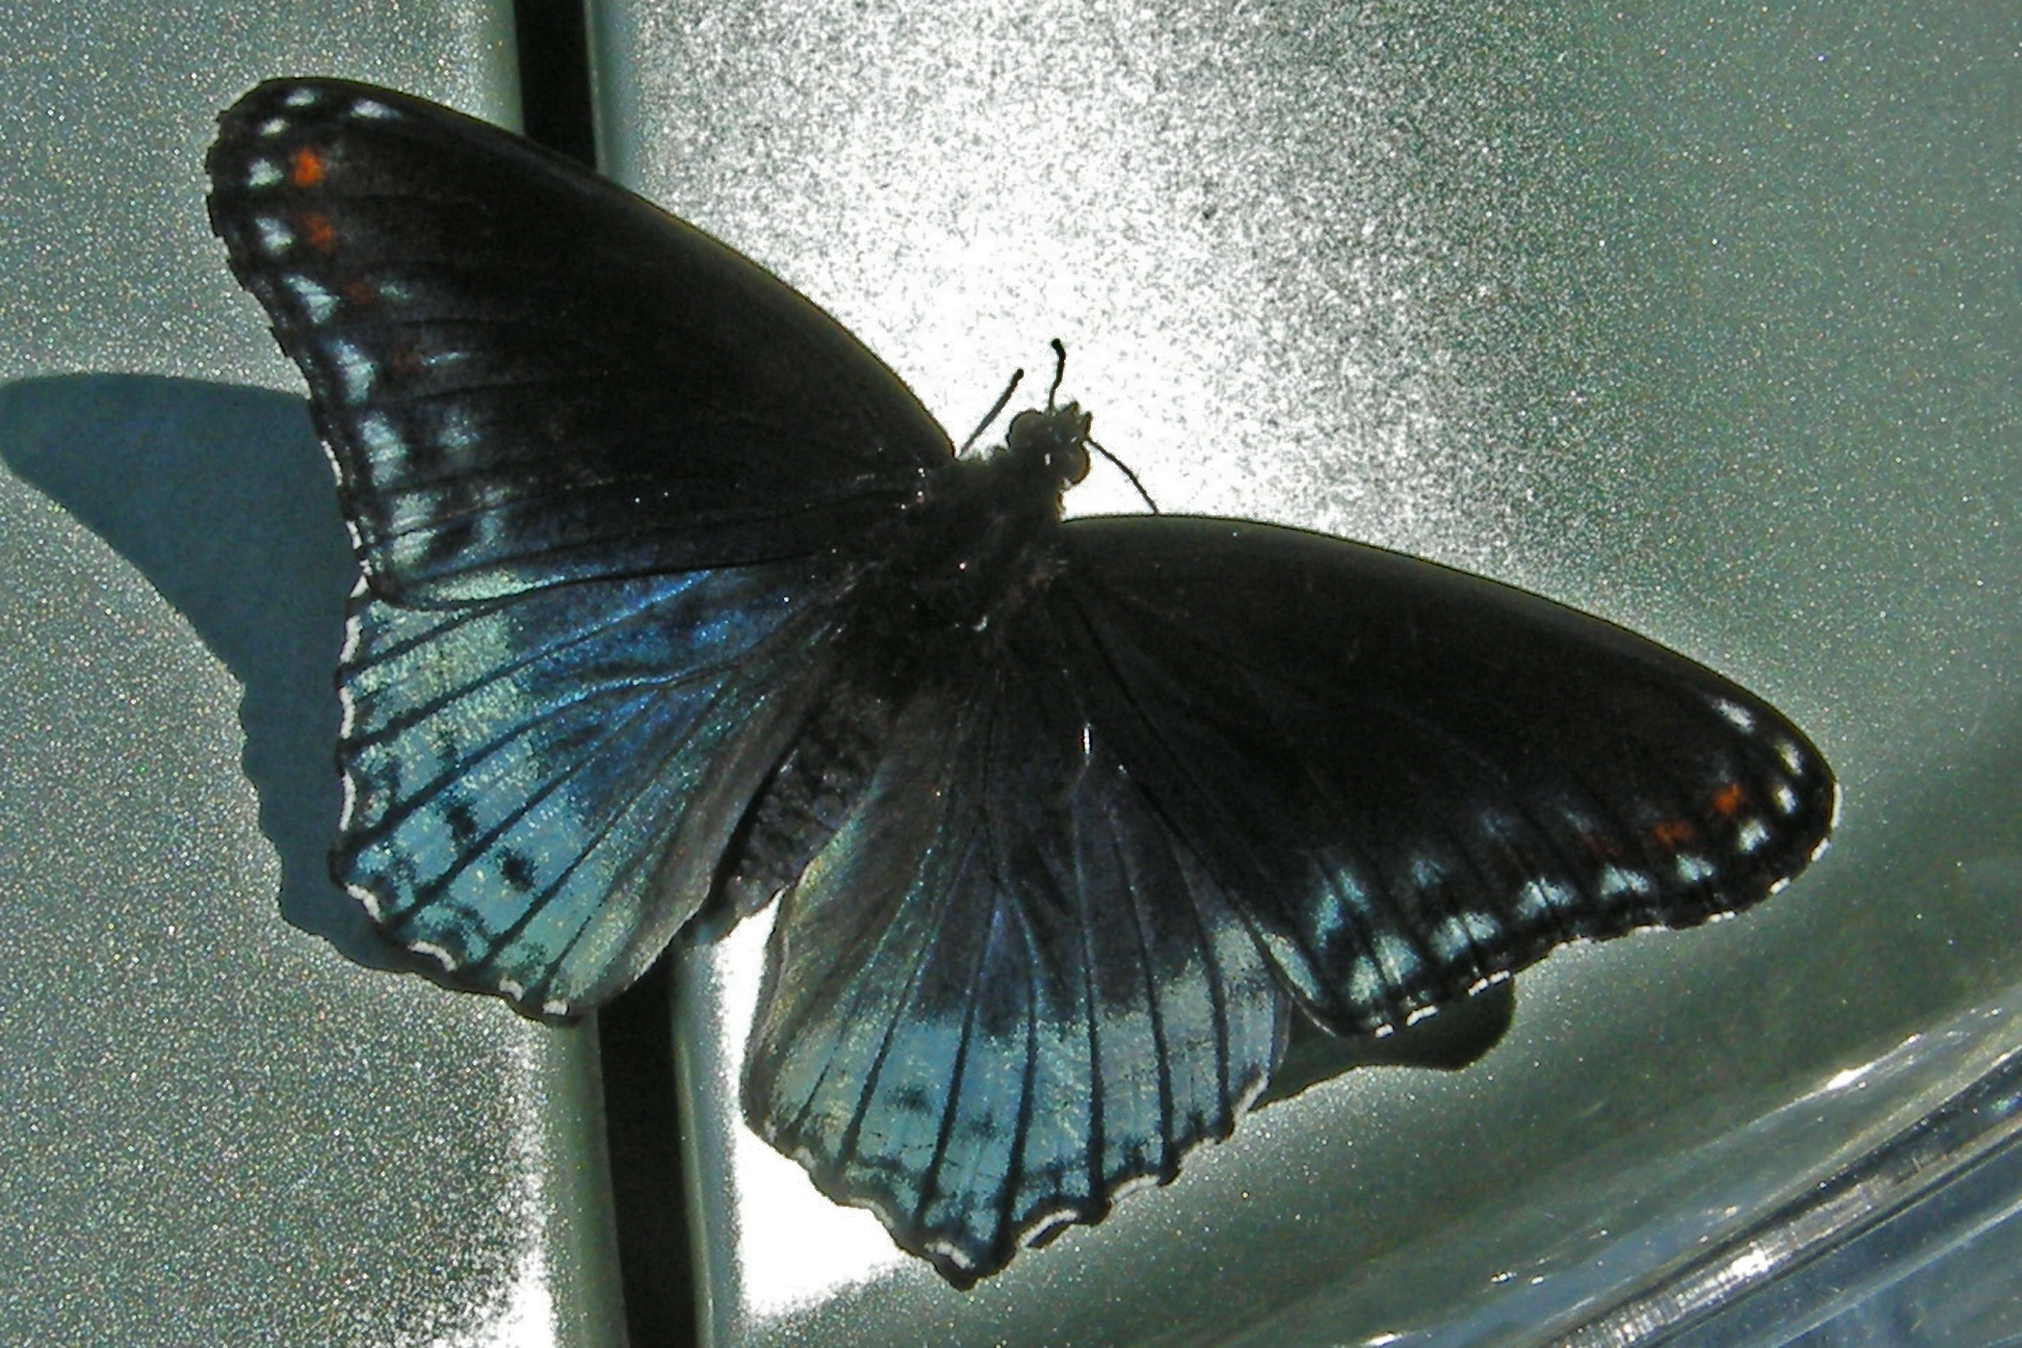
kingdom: Animalia
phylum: Arthropoda
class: Insecta
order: Lepidoptera
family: Nymphalidae
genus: Limenitis
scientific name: Limenitis astyanax
